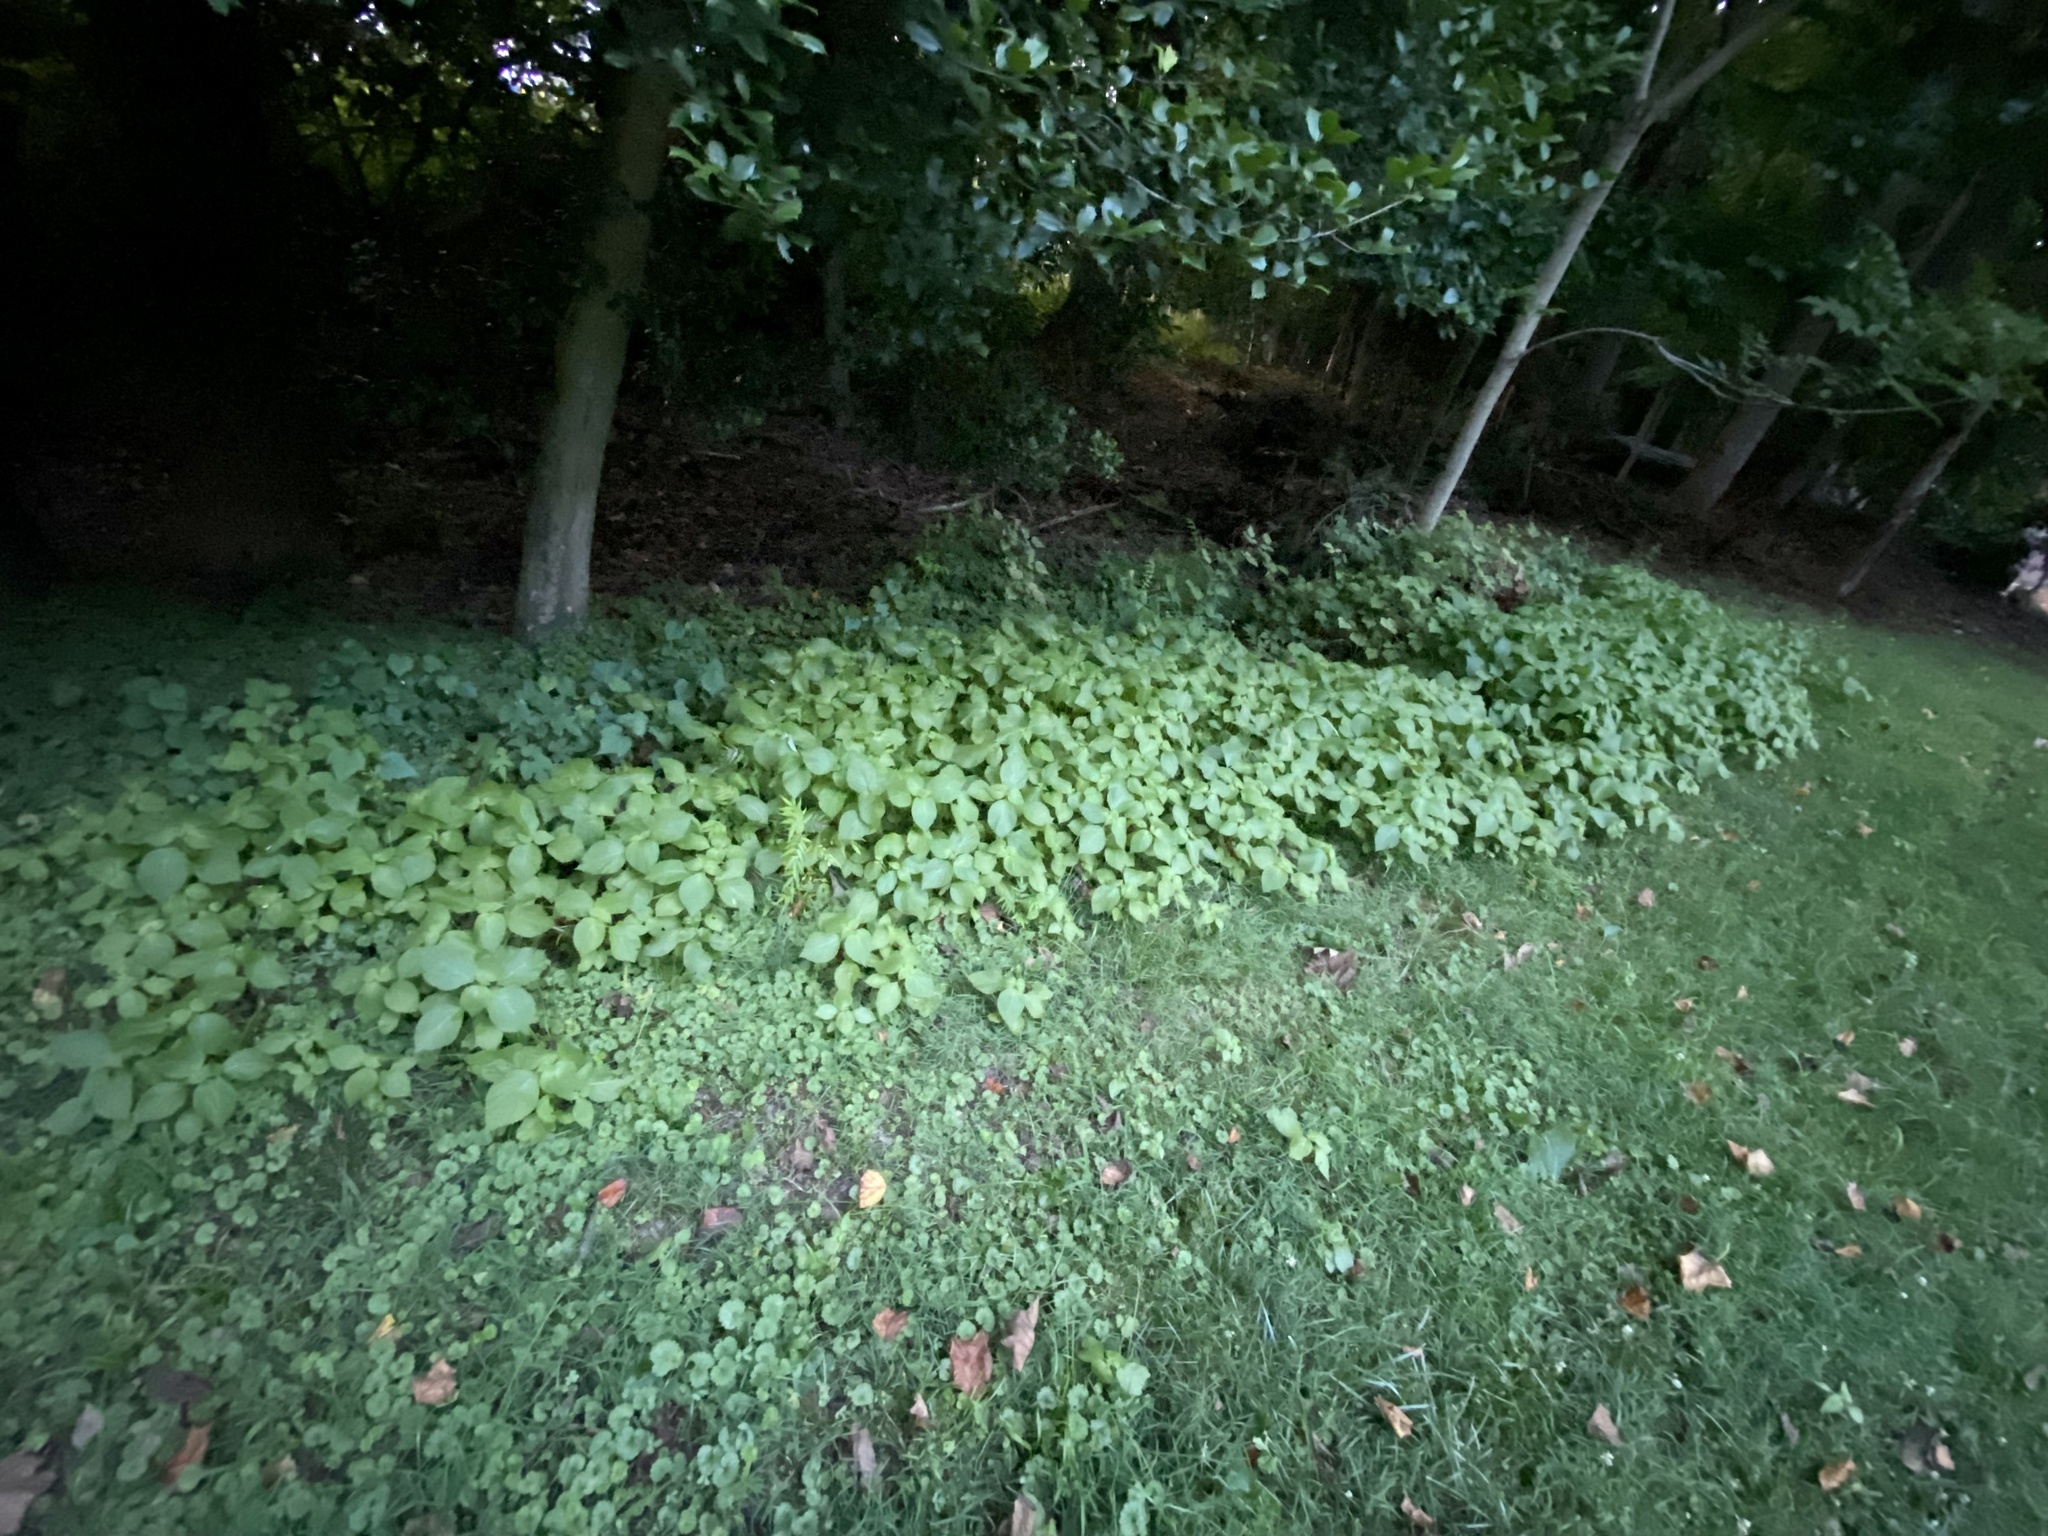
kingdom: Plantae
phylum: Tracheophyta
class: Magnoliopsida
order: Lamiales
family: Lamiaceae
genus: Perilla
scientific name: Perilla frutescens
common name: Perilla
